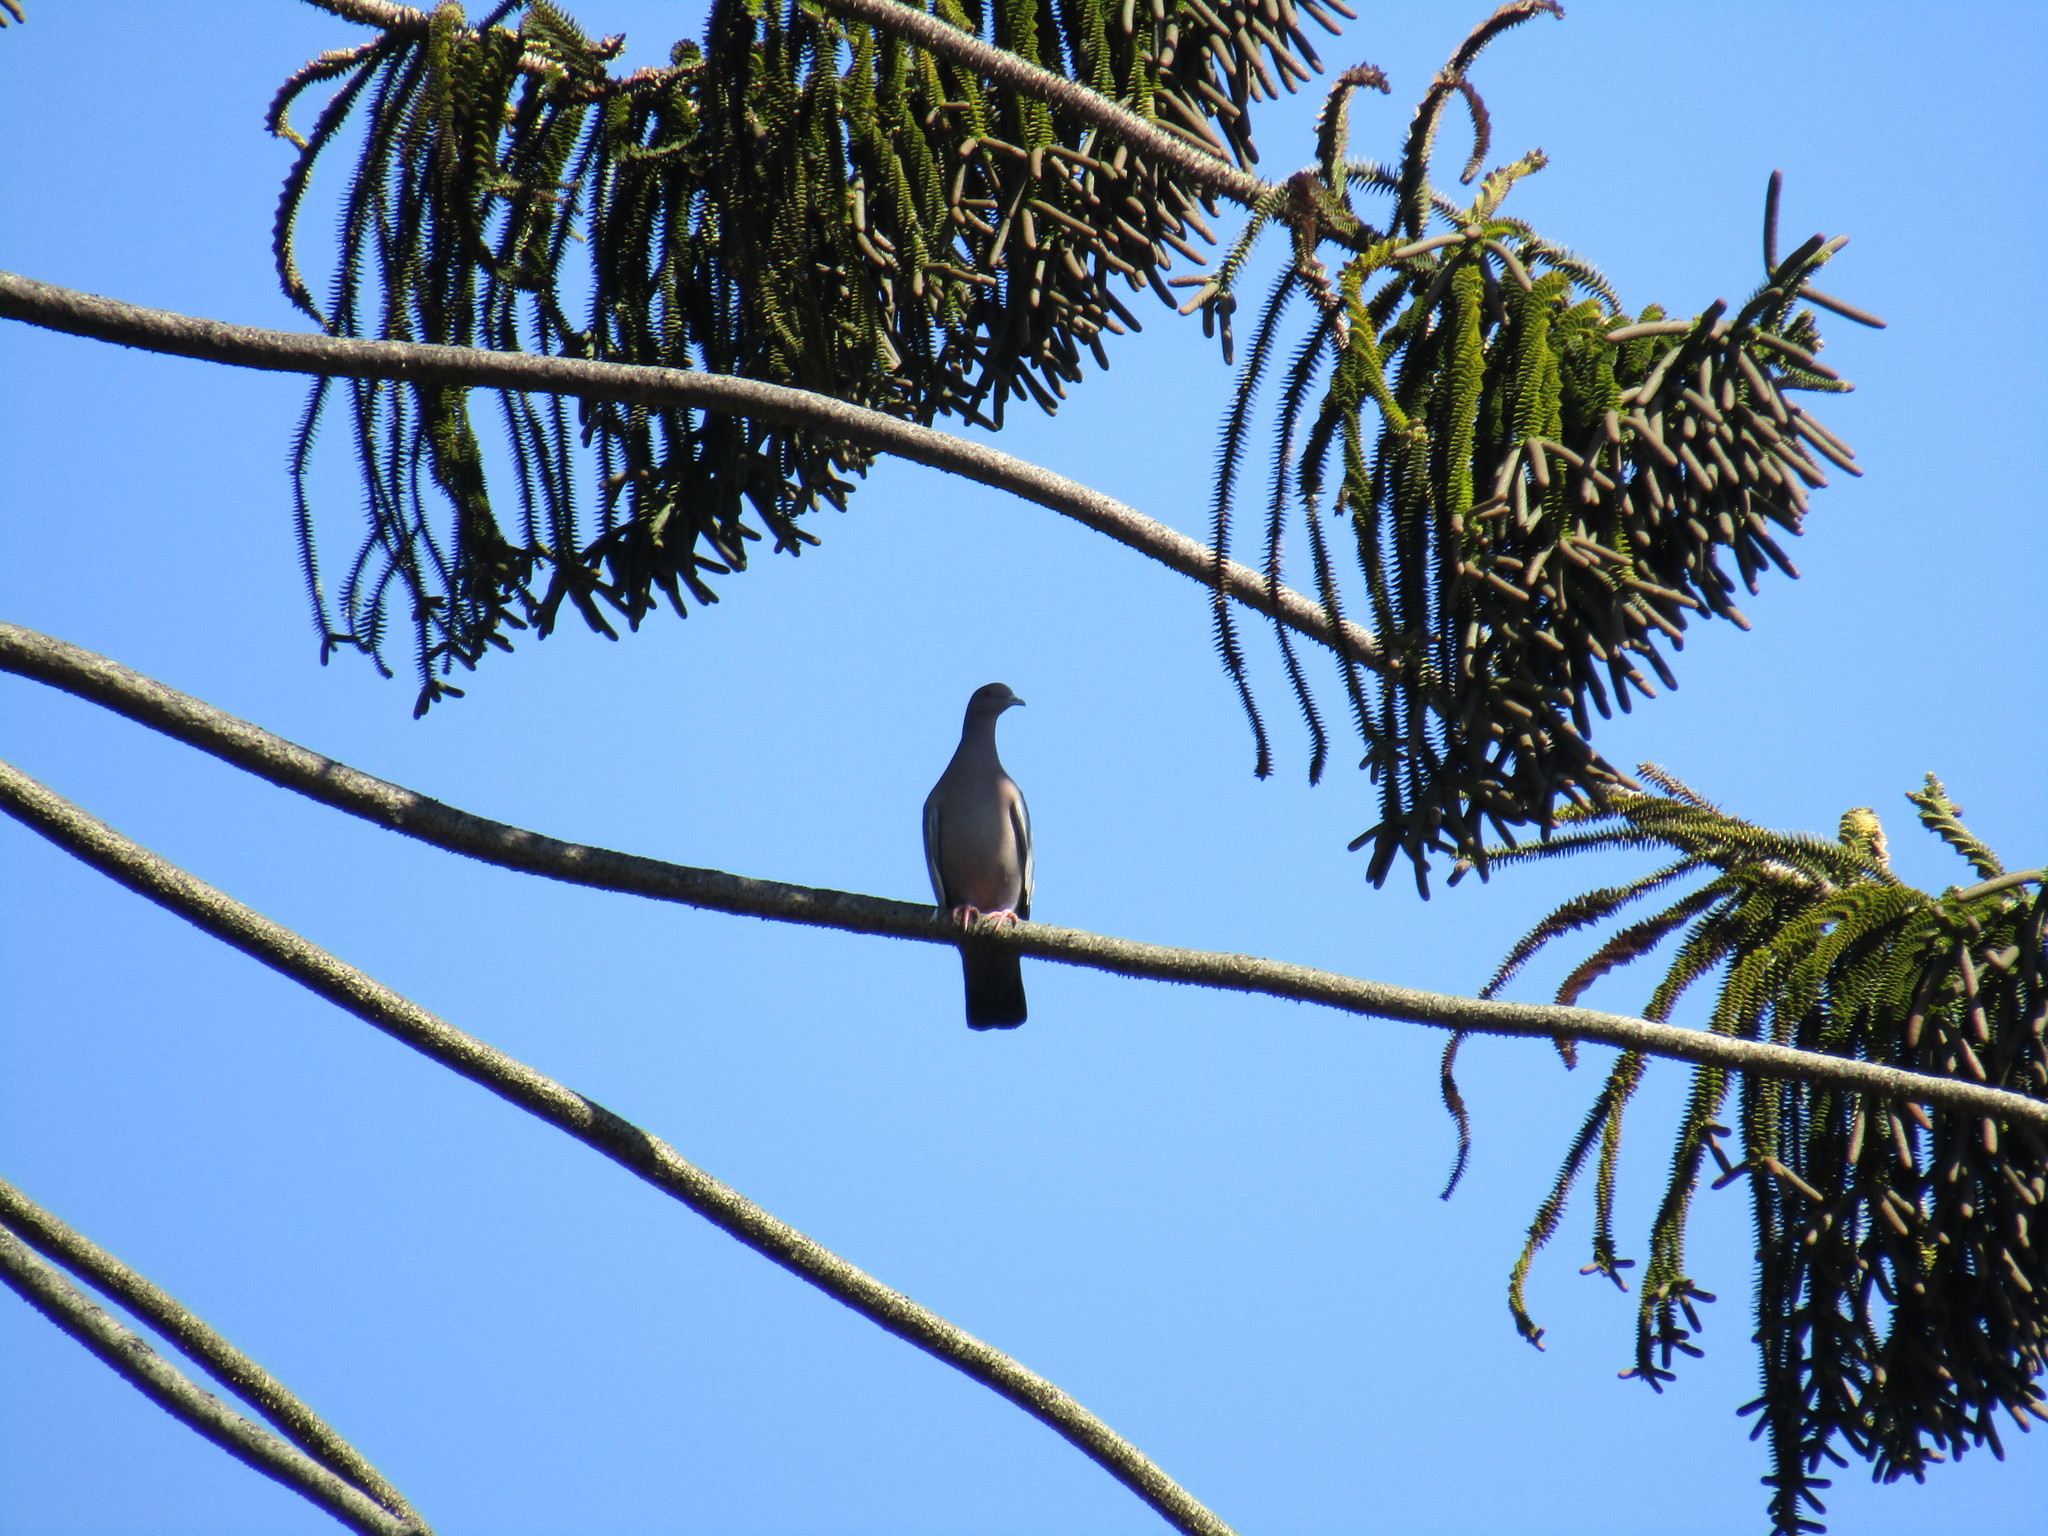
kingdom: Animalia
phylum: Chordata
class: Aves
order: Columbiformes
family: Columbidae
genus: Patagioenas
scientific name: Patagioenas picazuro
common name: Picazuro pigeon
